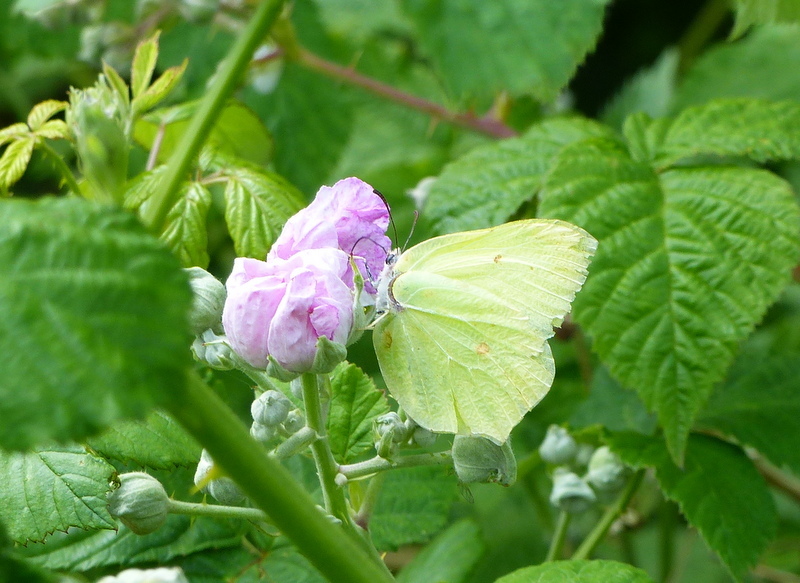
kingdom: Animalia
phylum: Arthropoda
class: Insecta
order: Lepidoptera
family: Pieridae
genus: Gonepteryx
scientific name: Gonepteryx rhamni
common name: Brimstone
